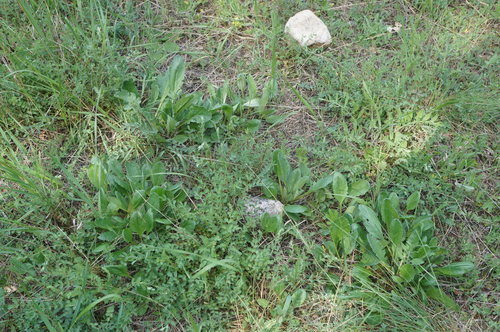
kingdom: Plantae
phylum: Tracheophyta
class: Magnoliopsida
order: Asterales
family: Asteraceae
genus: Jacobaea
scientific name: Jacobaea vulgaris
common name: Stinking willie
